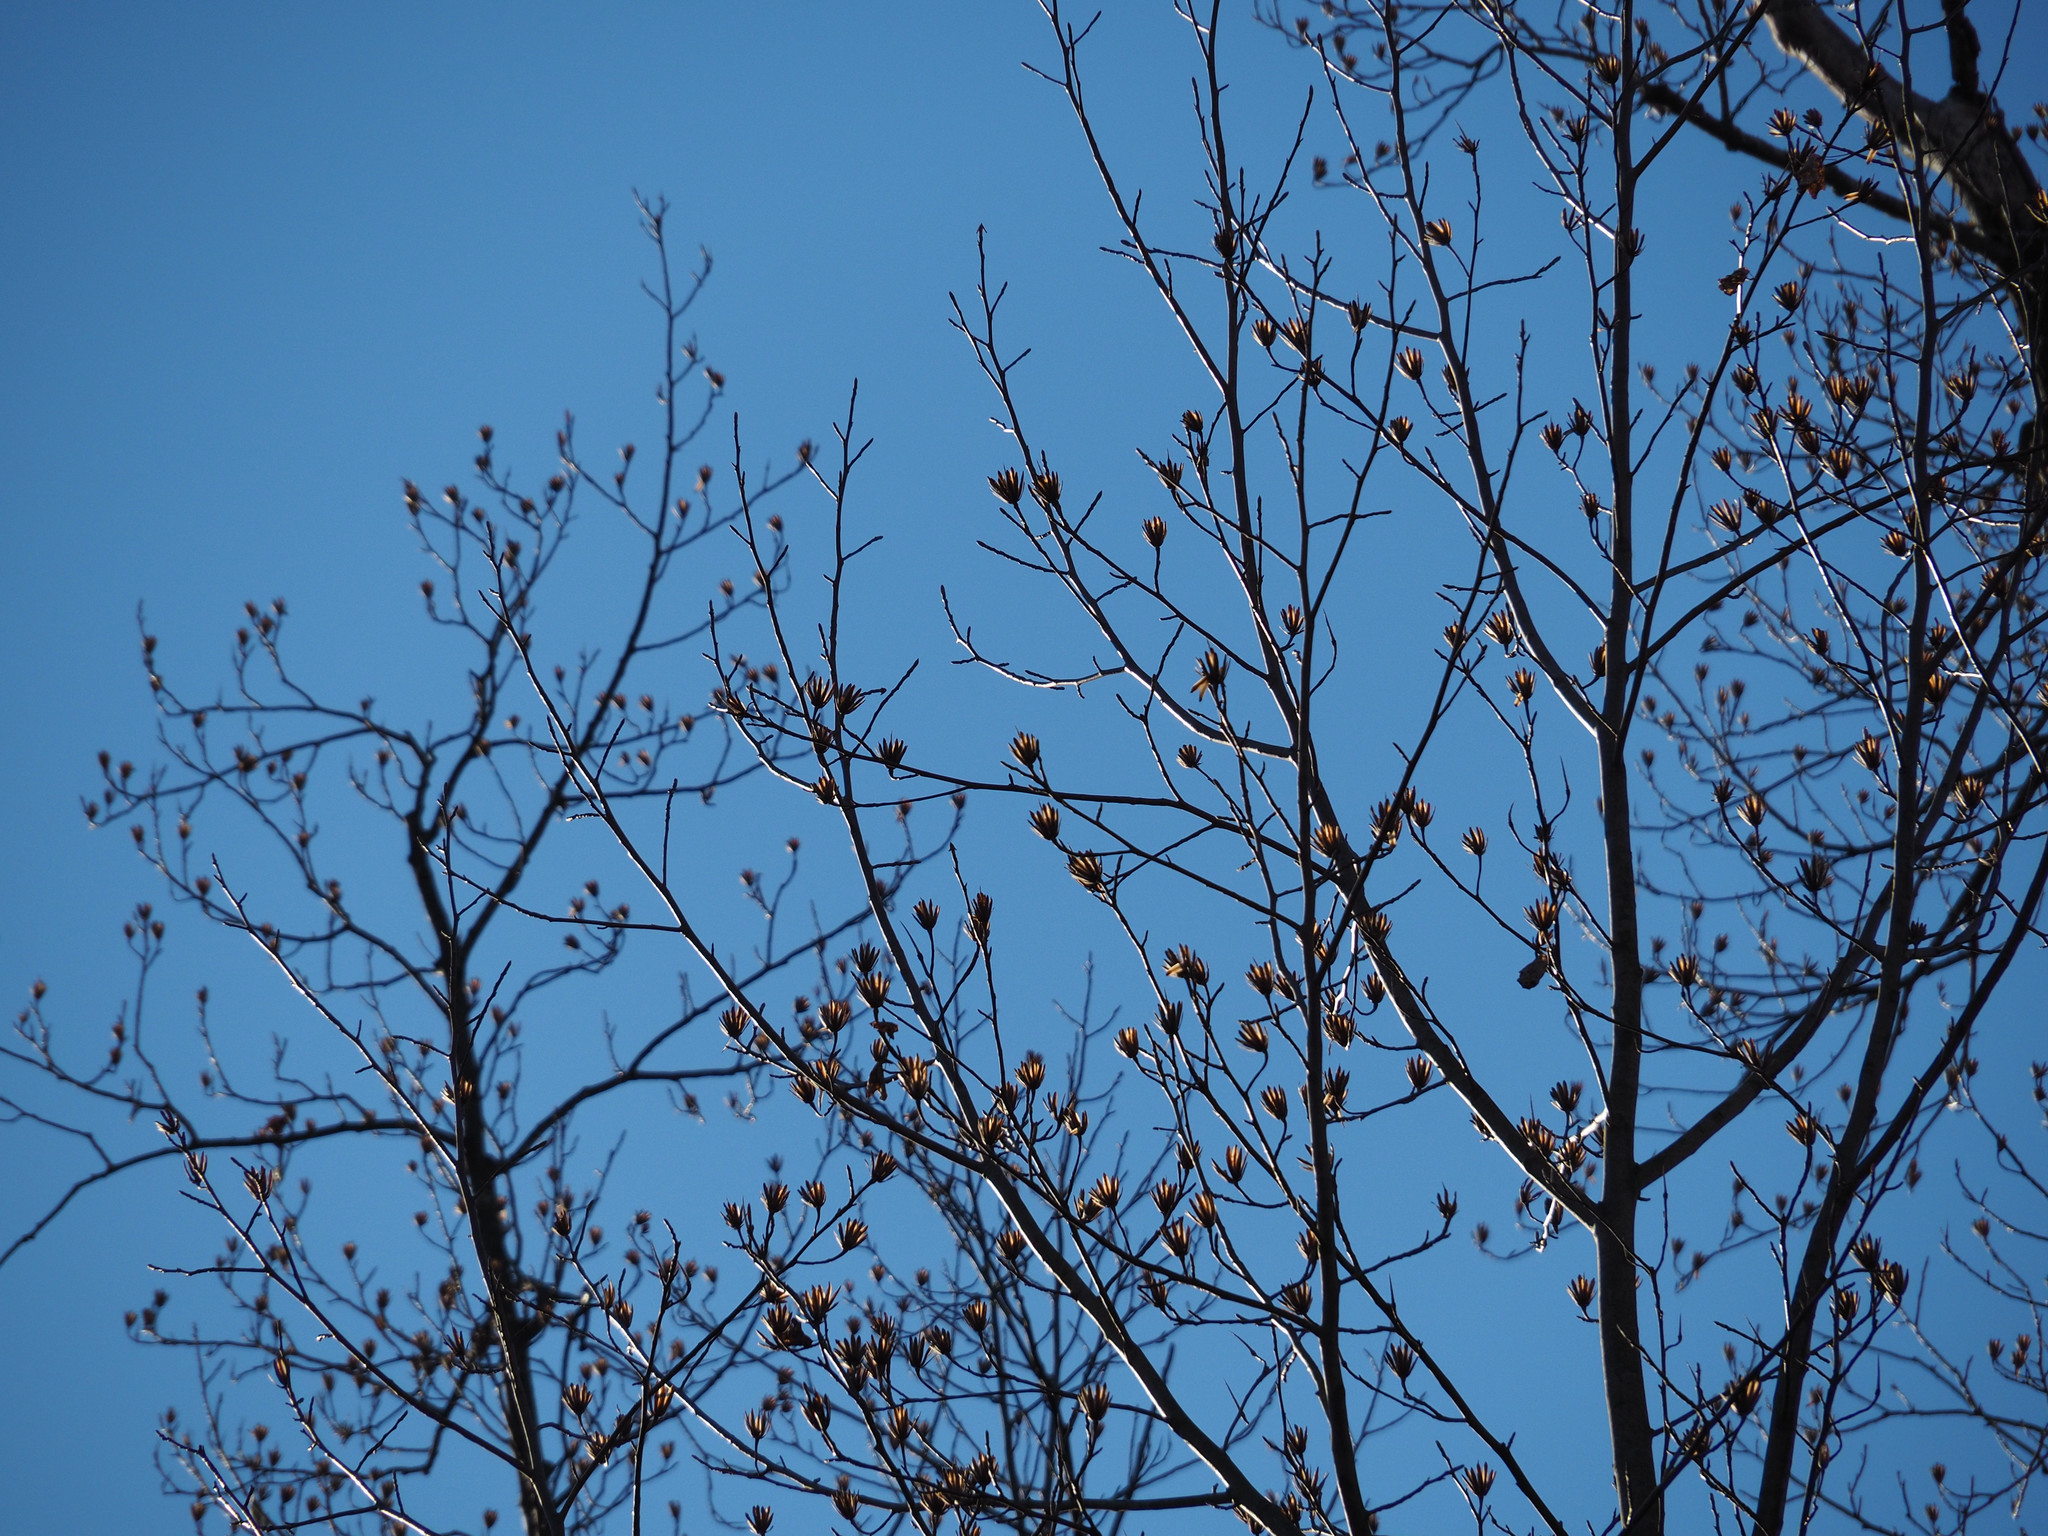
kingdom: Plantae
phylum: Tracheophyta
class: Magnoliopsida
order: Magnoliales
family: Magnoliaceae
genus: Liriodendron
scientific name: Liriodendron tulipifera
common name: Tulip tree
